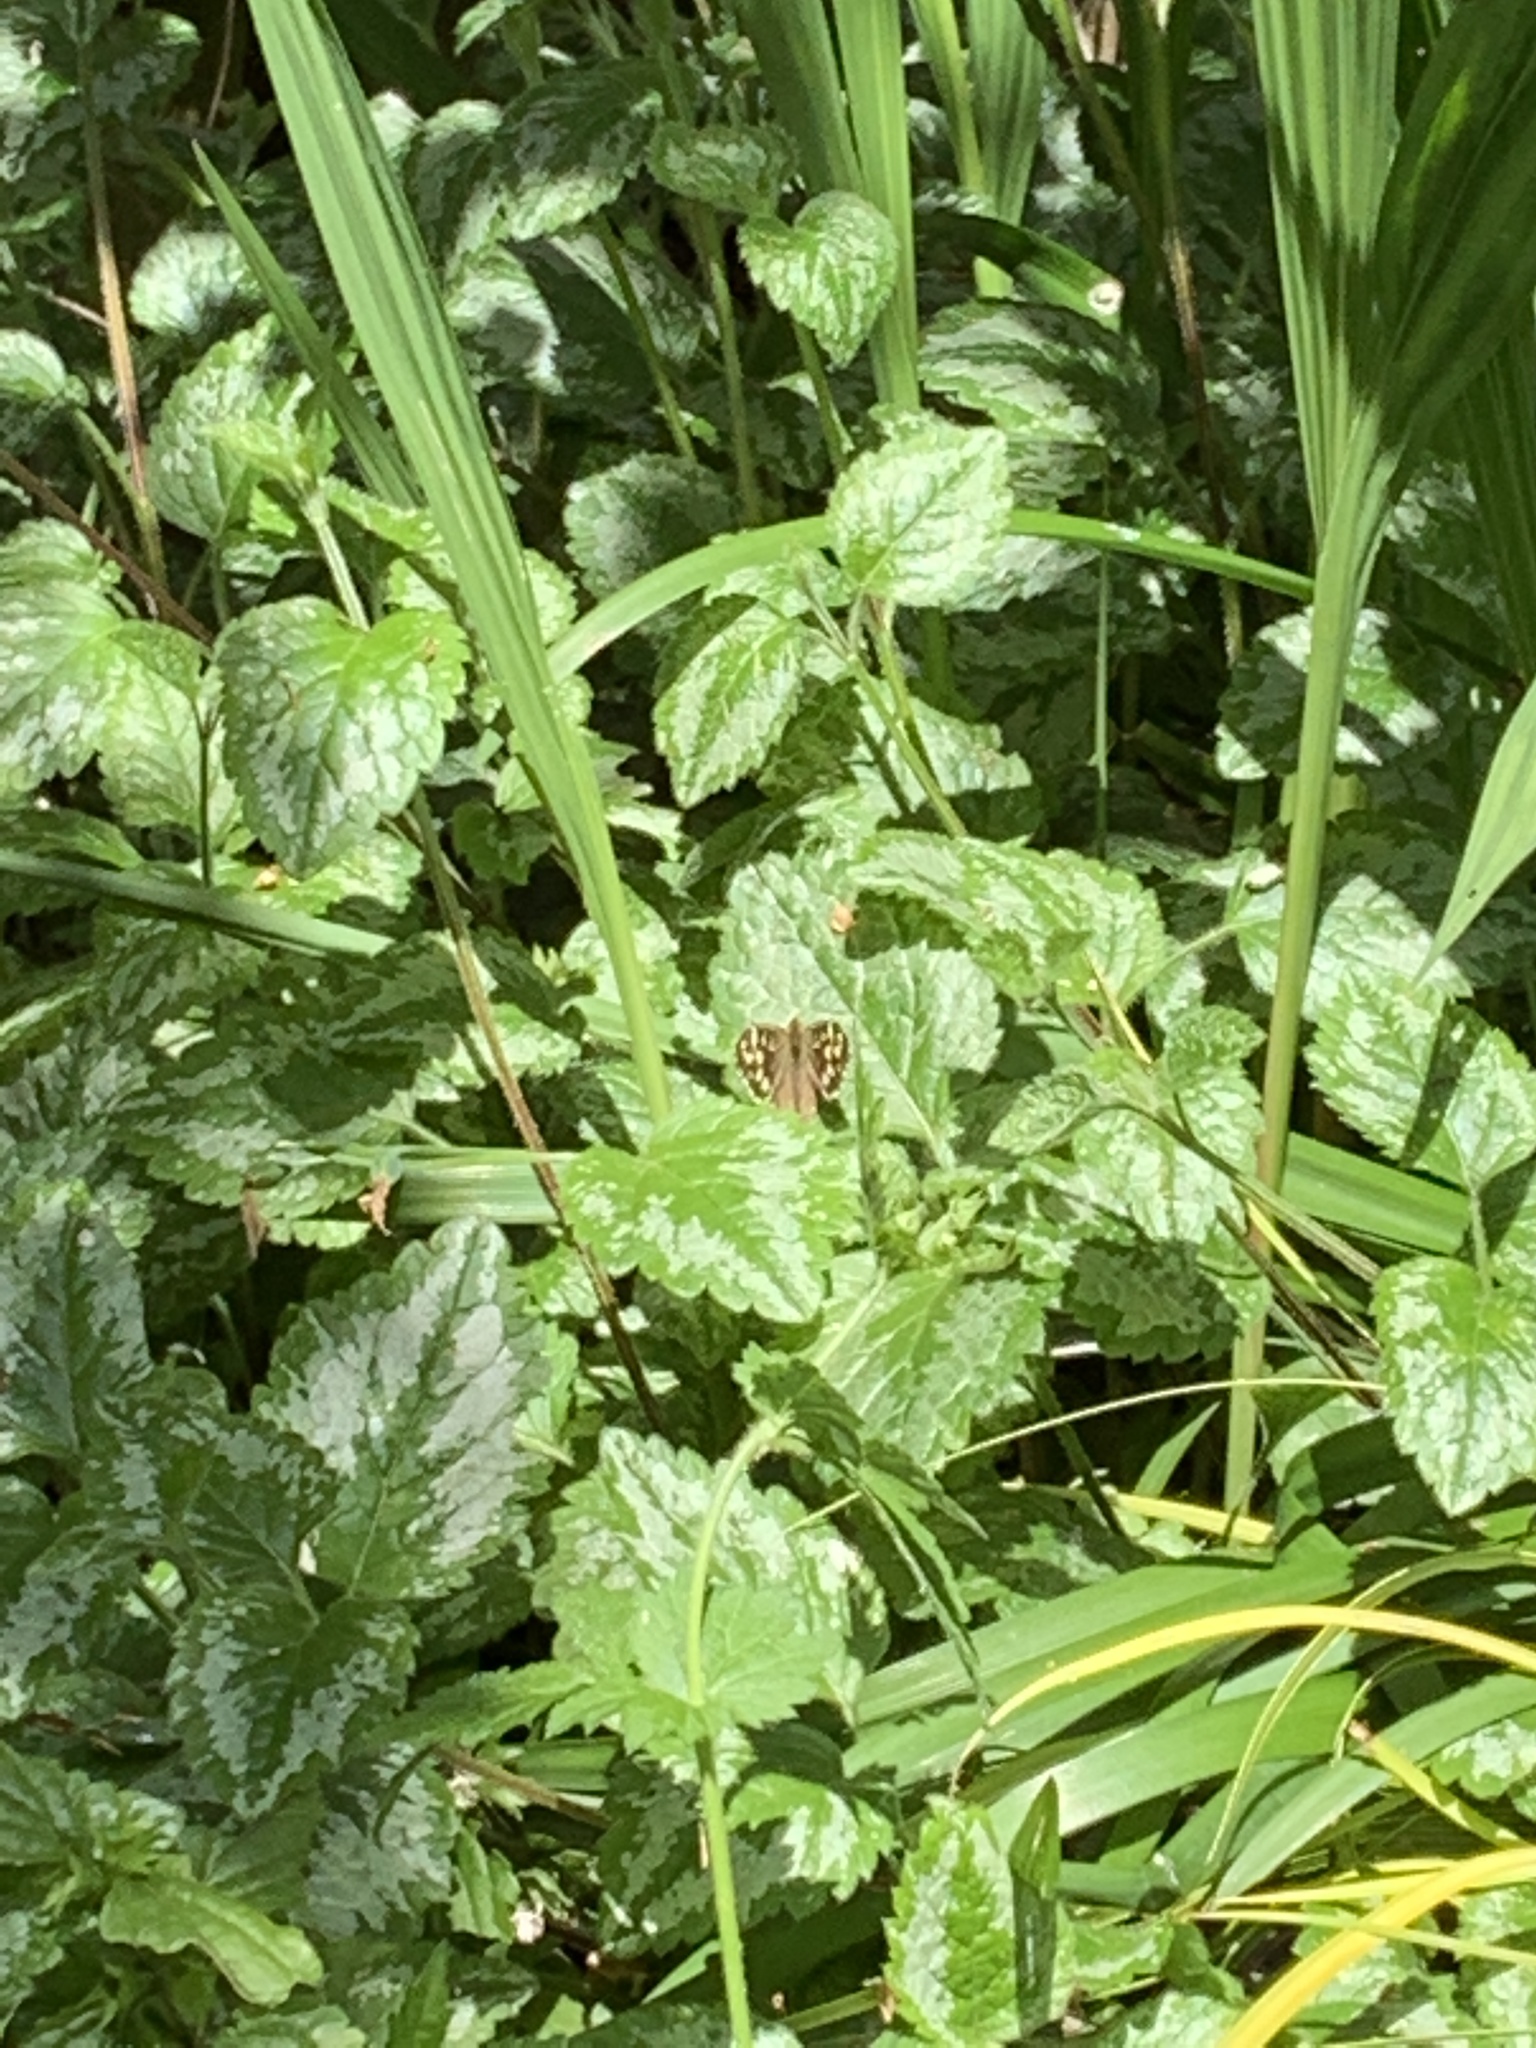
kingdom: Animalia
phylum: Arthropoda
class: Insecta
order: Lepidoptera
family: Nymphalidae
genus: Pararge
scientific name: Pararge aegeria
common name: Speckled wood
